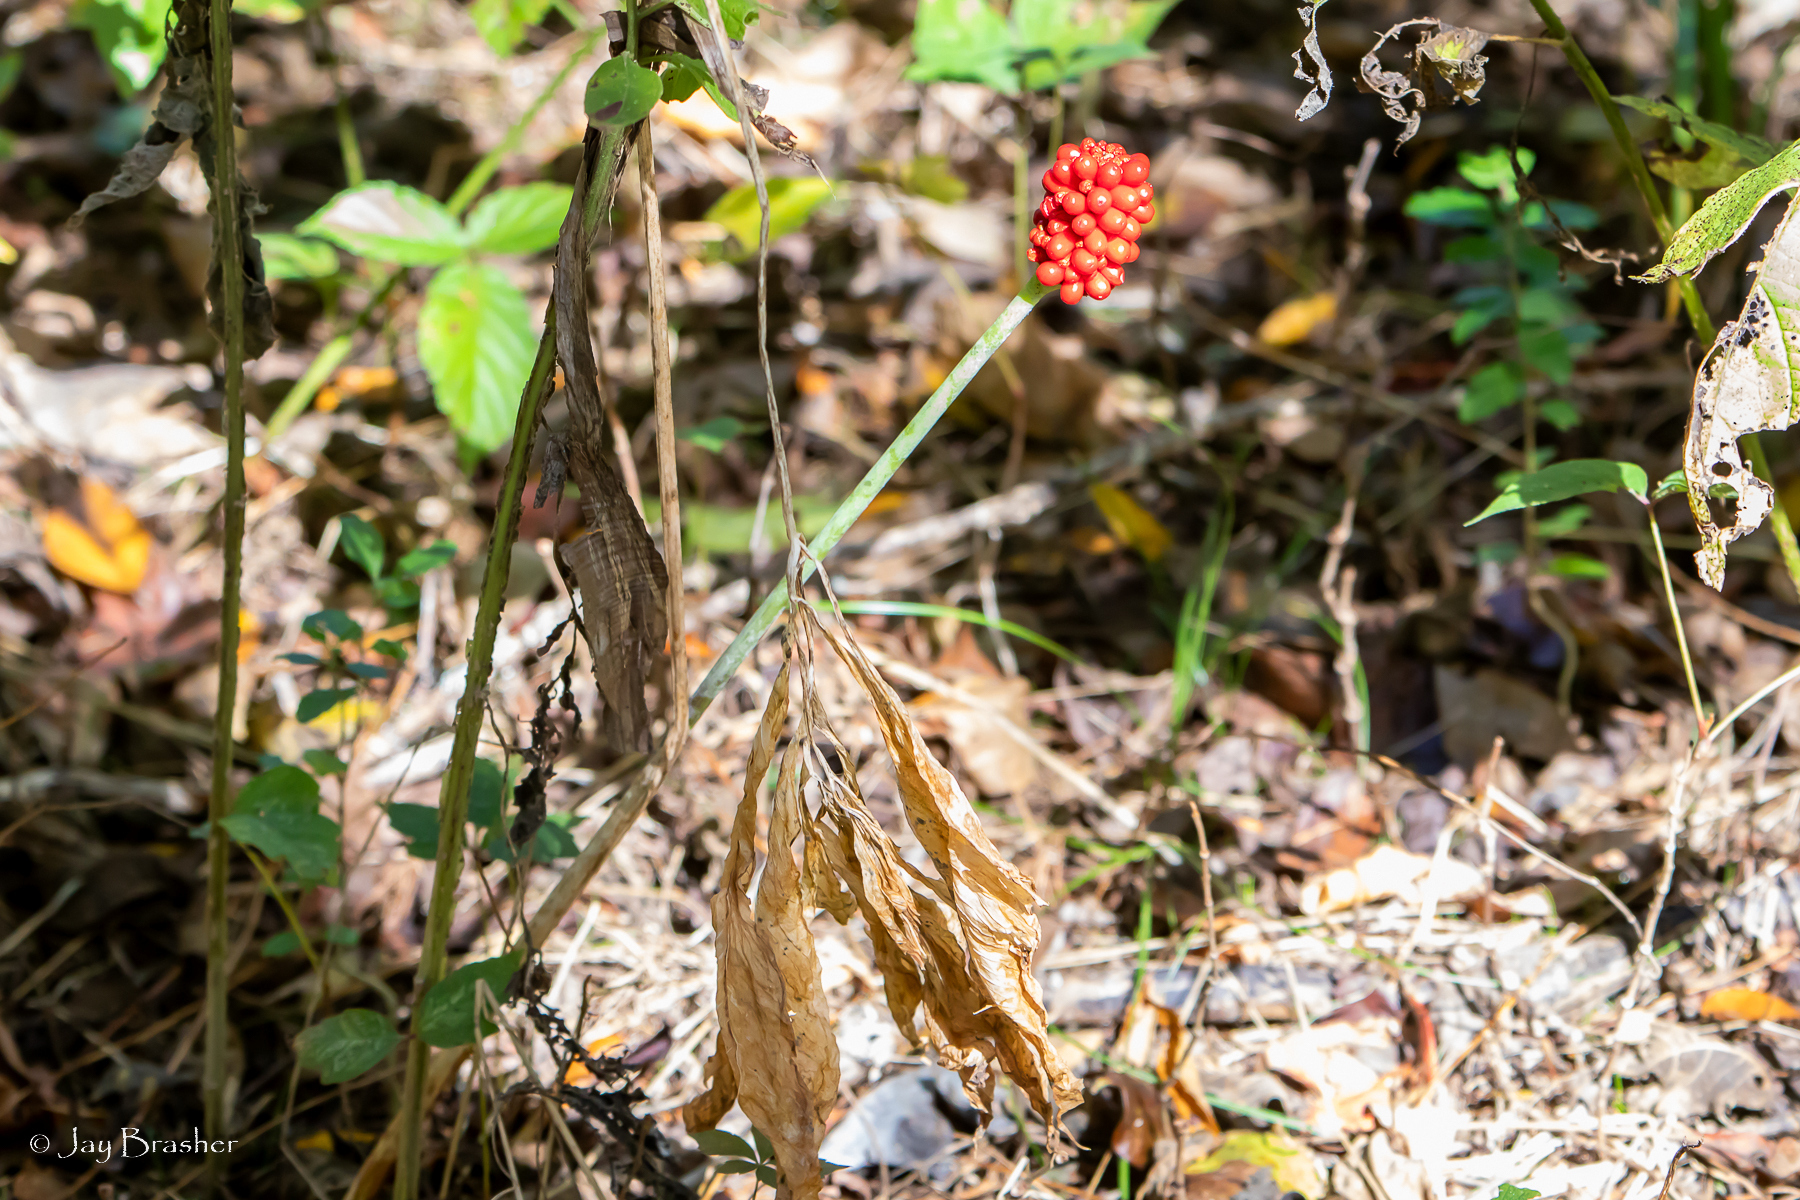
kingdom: Plantae
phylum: Tracheophyta
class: Liliopsida
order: Alismatales
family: Araceae
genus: Arisaema
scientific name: Arisaema dracontium
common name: Dragon-arum
